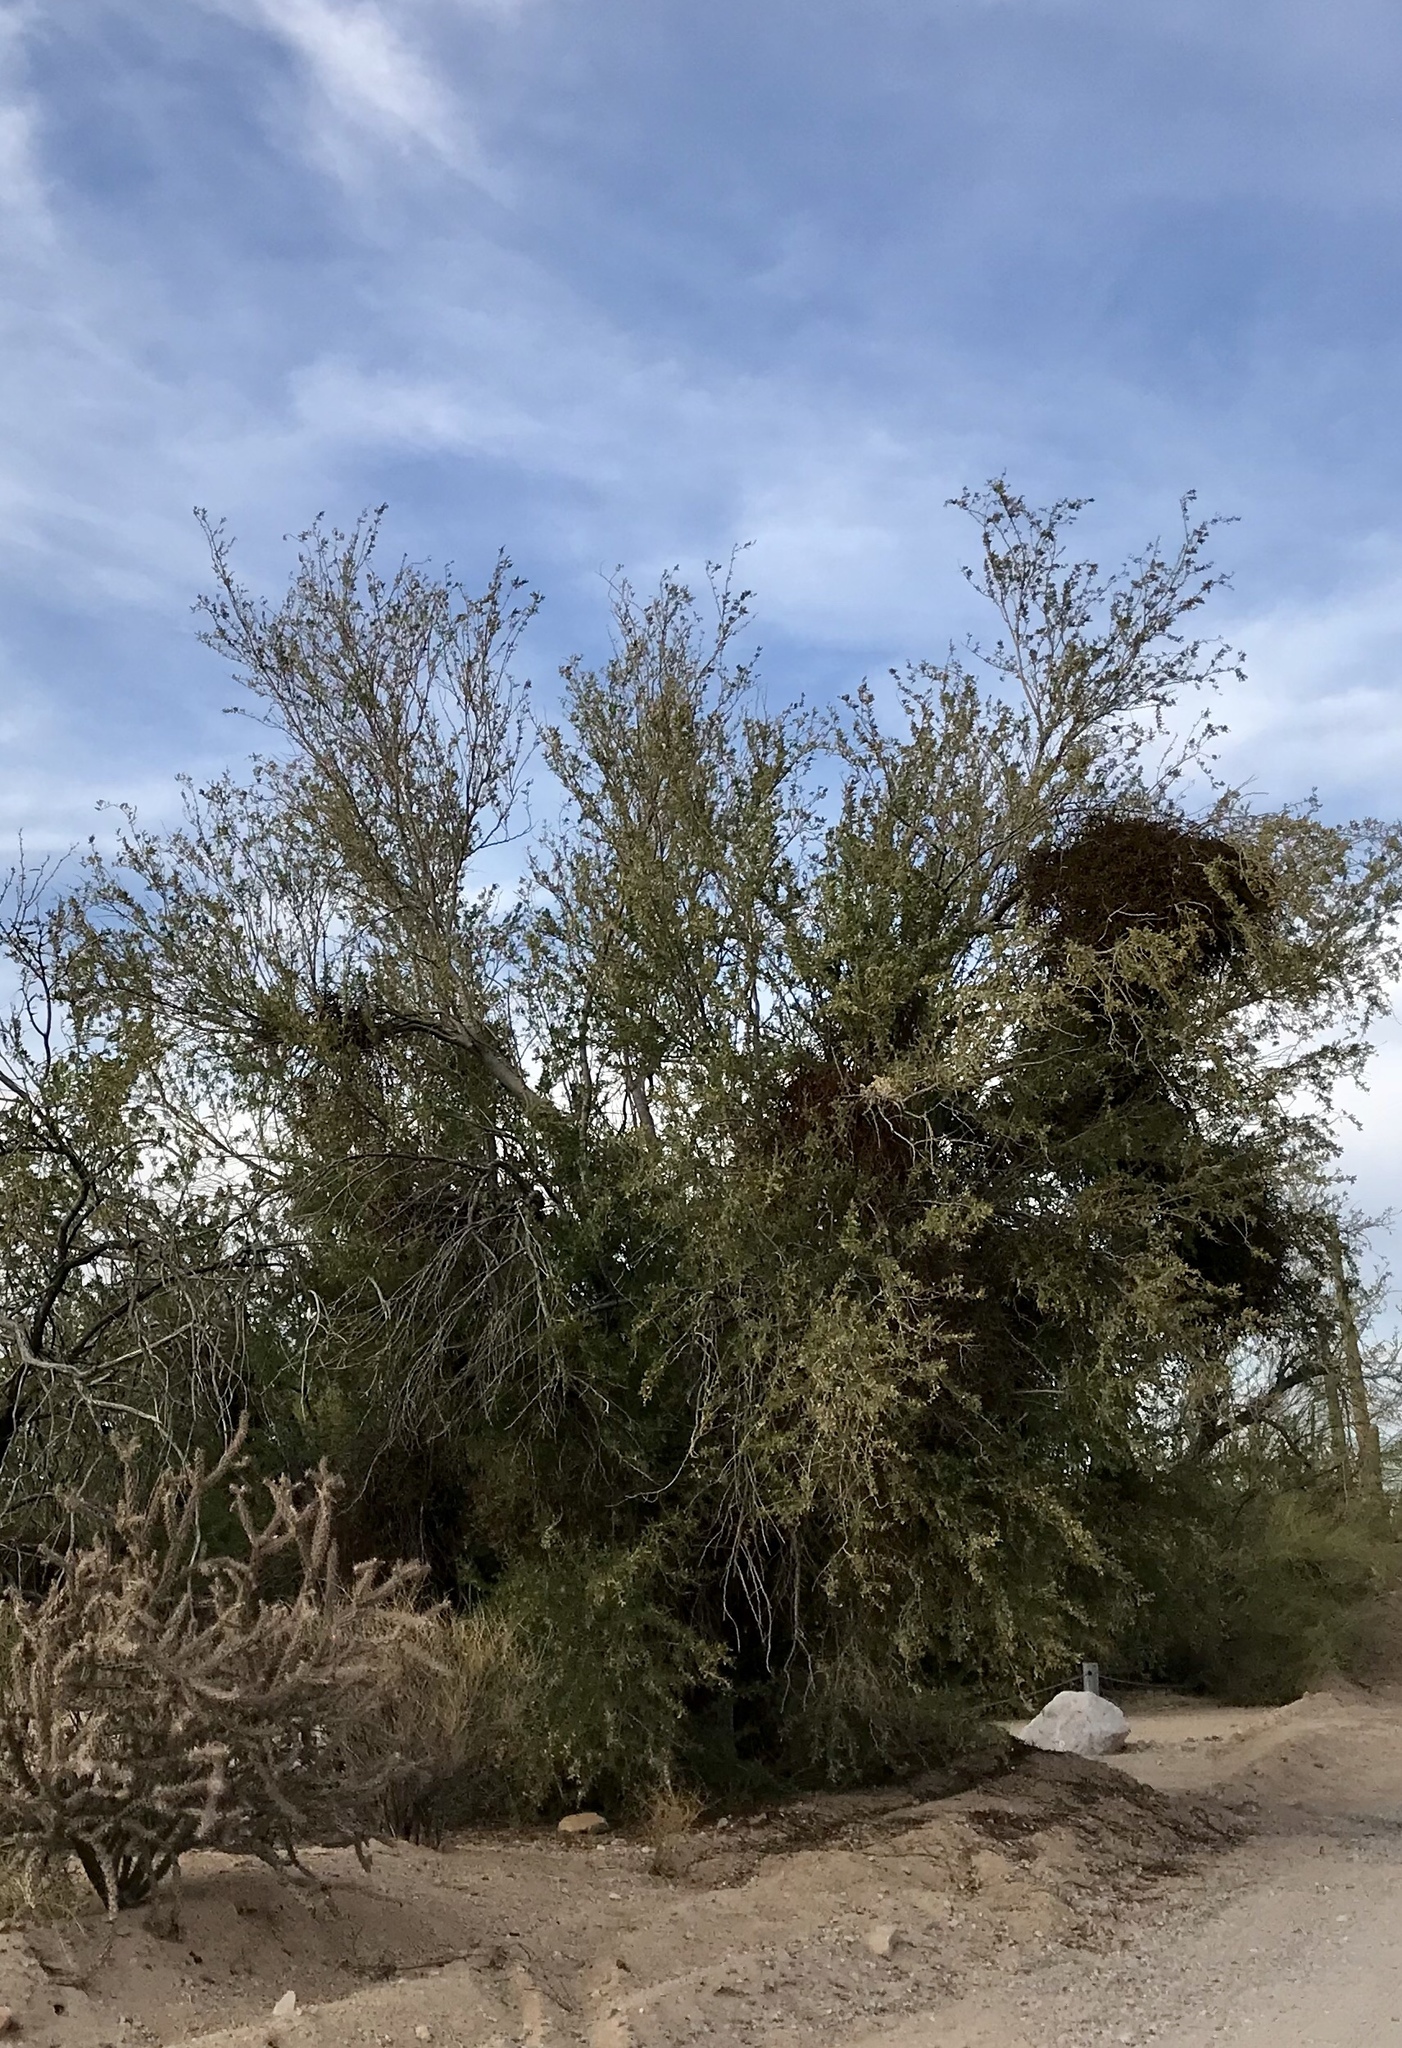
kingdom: Plantae
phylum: Tracheophyta
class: Magnoliopsida
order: Fabales
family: Fabaceae
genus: Olneya
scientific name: Olneya tesota
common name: Desert ironwood
